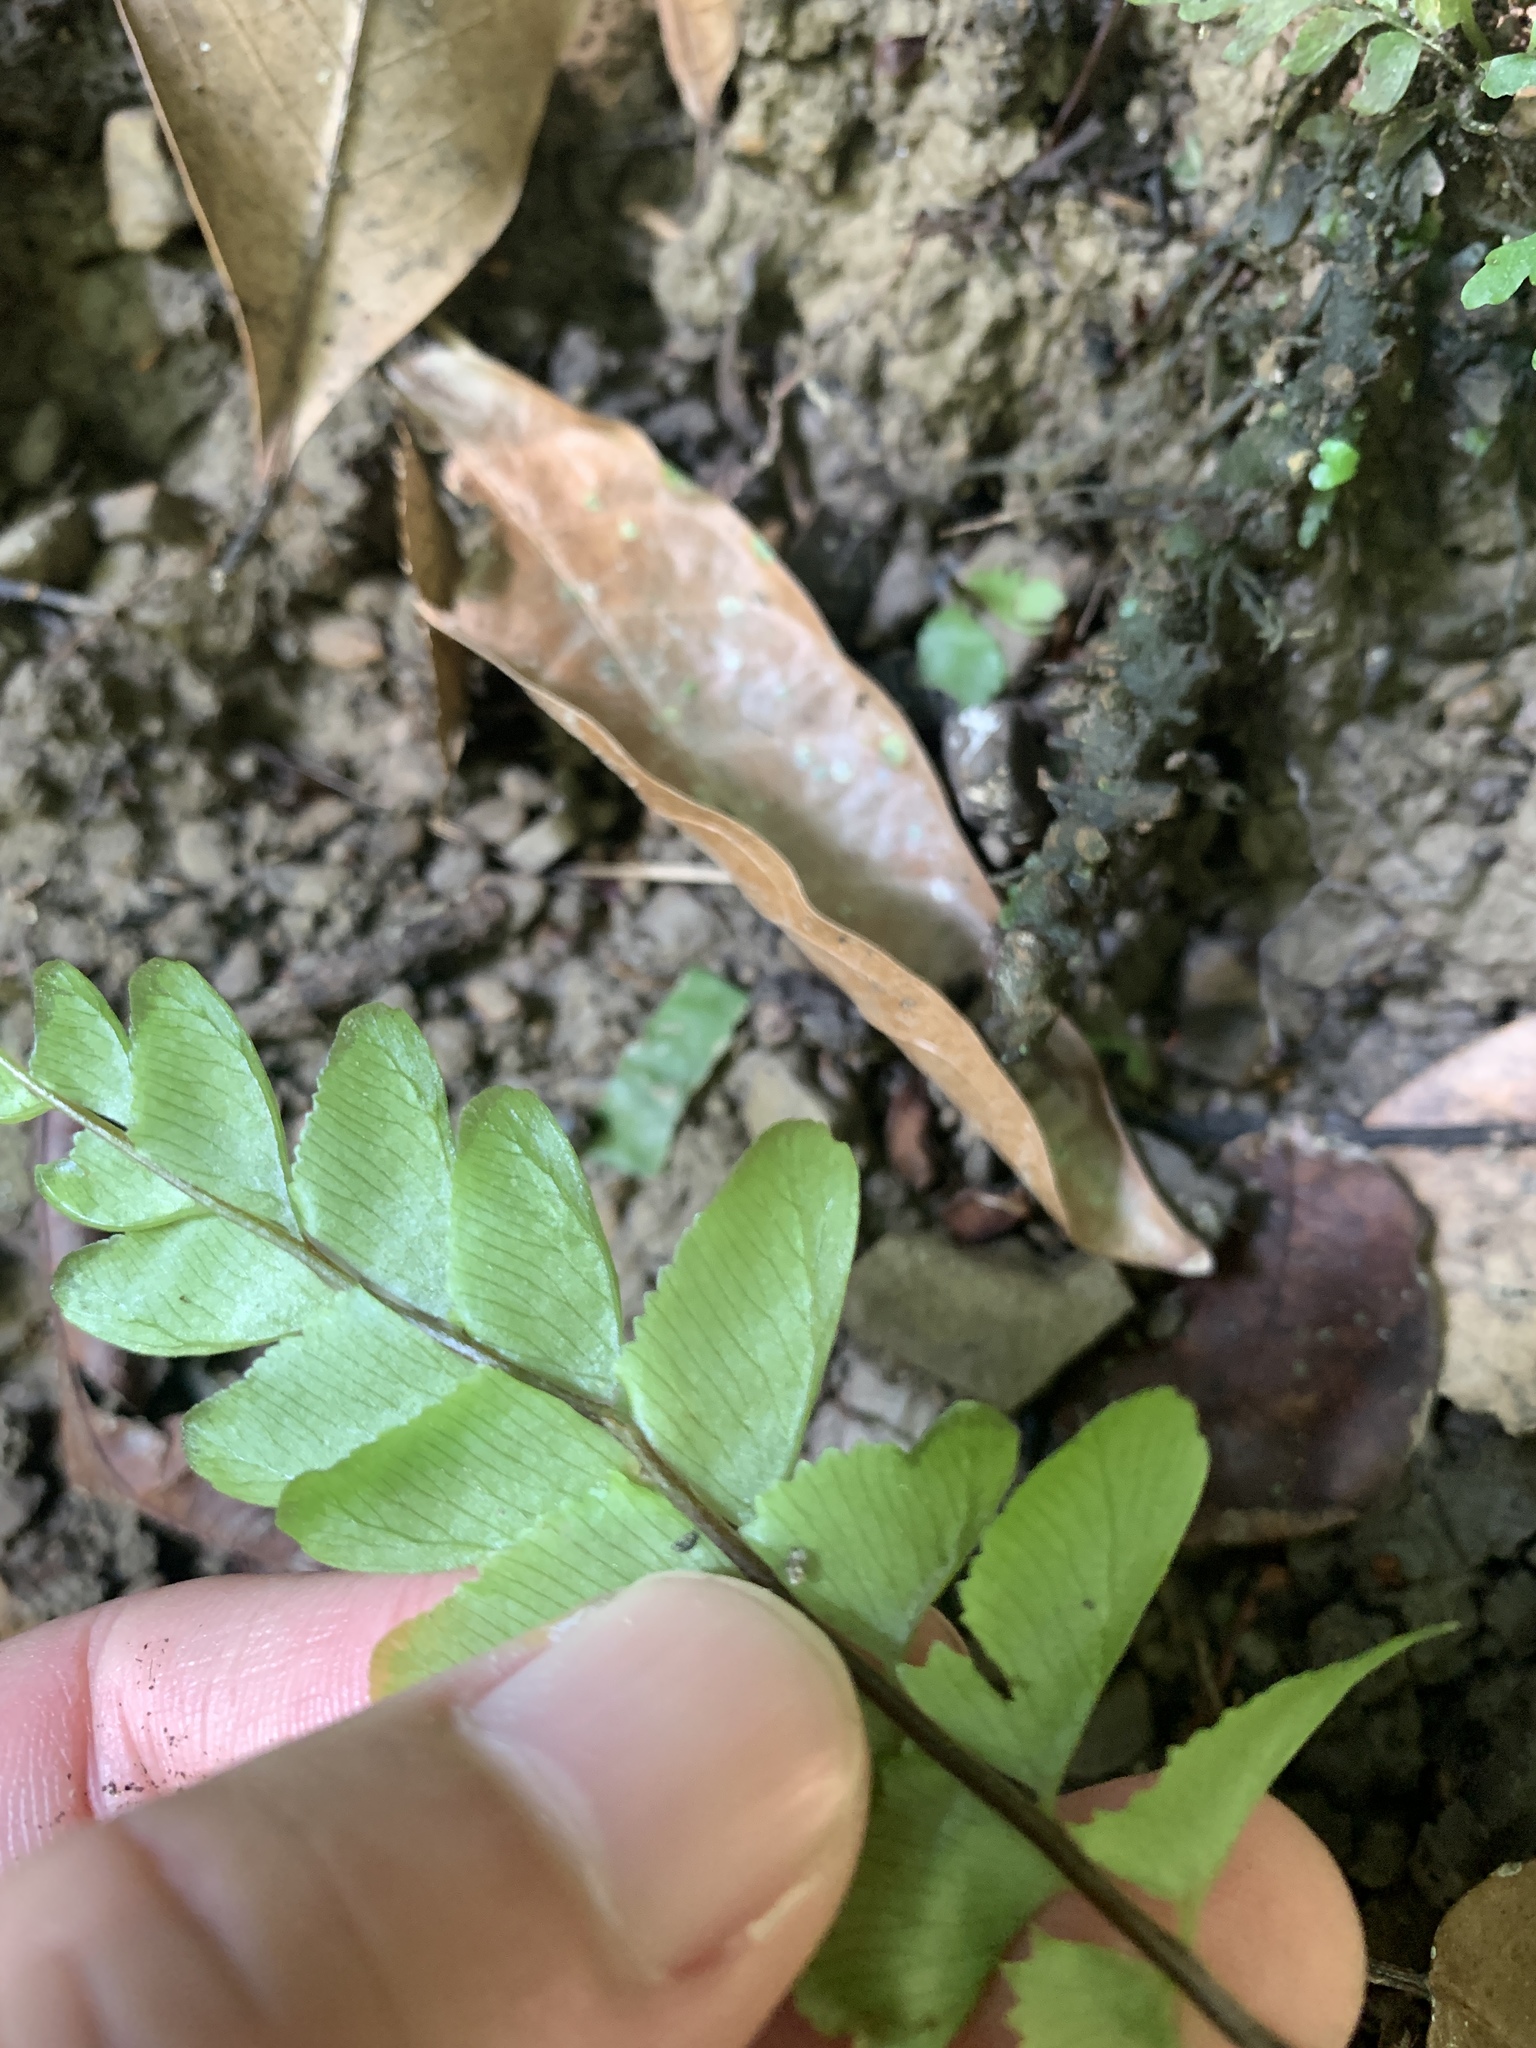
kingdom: Plantae
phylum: Tracheophyta
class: Polypodiopsida
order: Polypodiales
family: Aspleniaceae
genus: Hymenasplenium
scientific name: Hymenasplenium excisum
